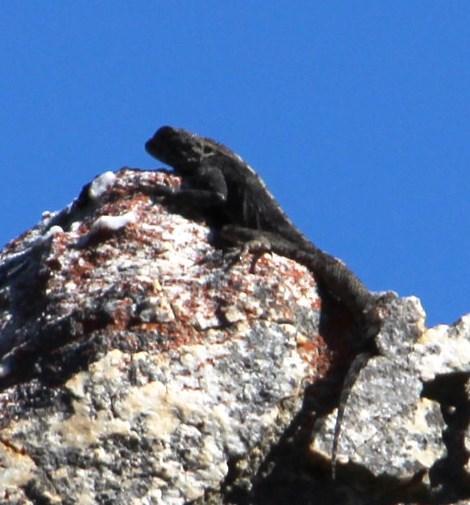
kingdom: Animalia
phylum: Chordata
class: Squamata
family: Agamidae
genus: Agama
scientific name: Agama atra
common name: Southern african rock agama
